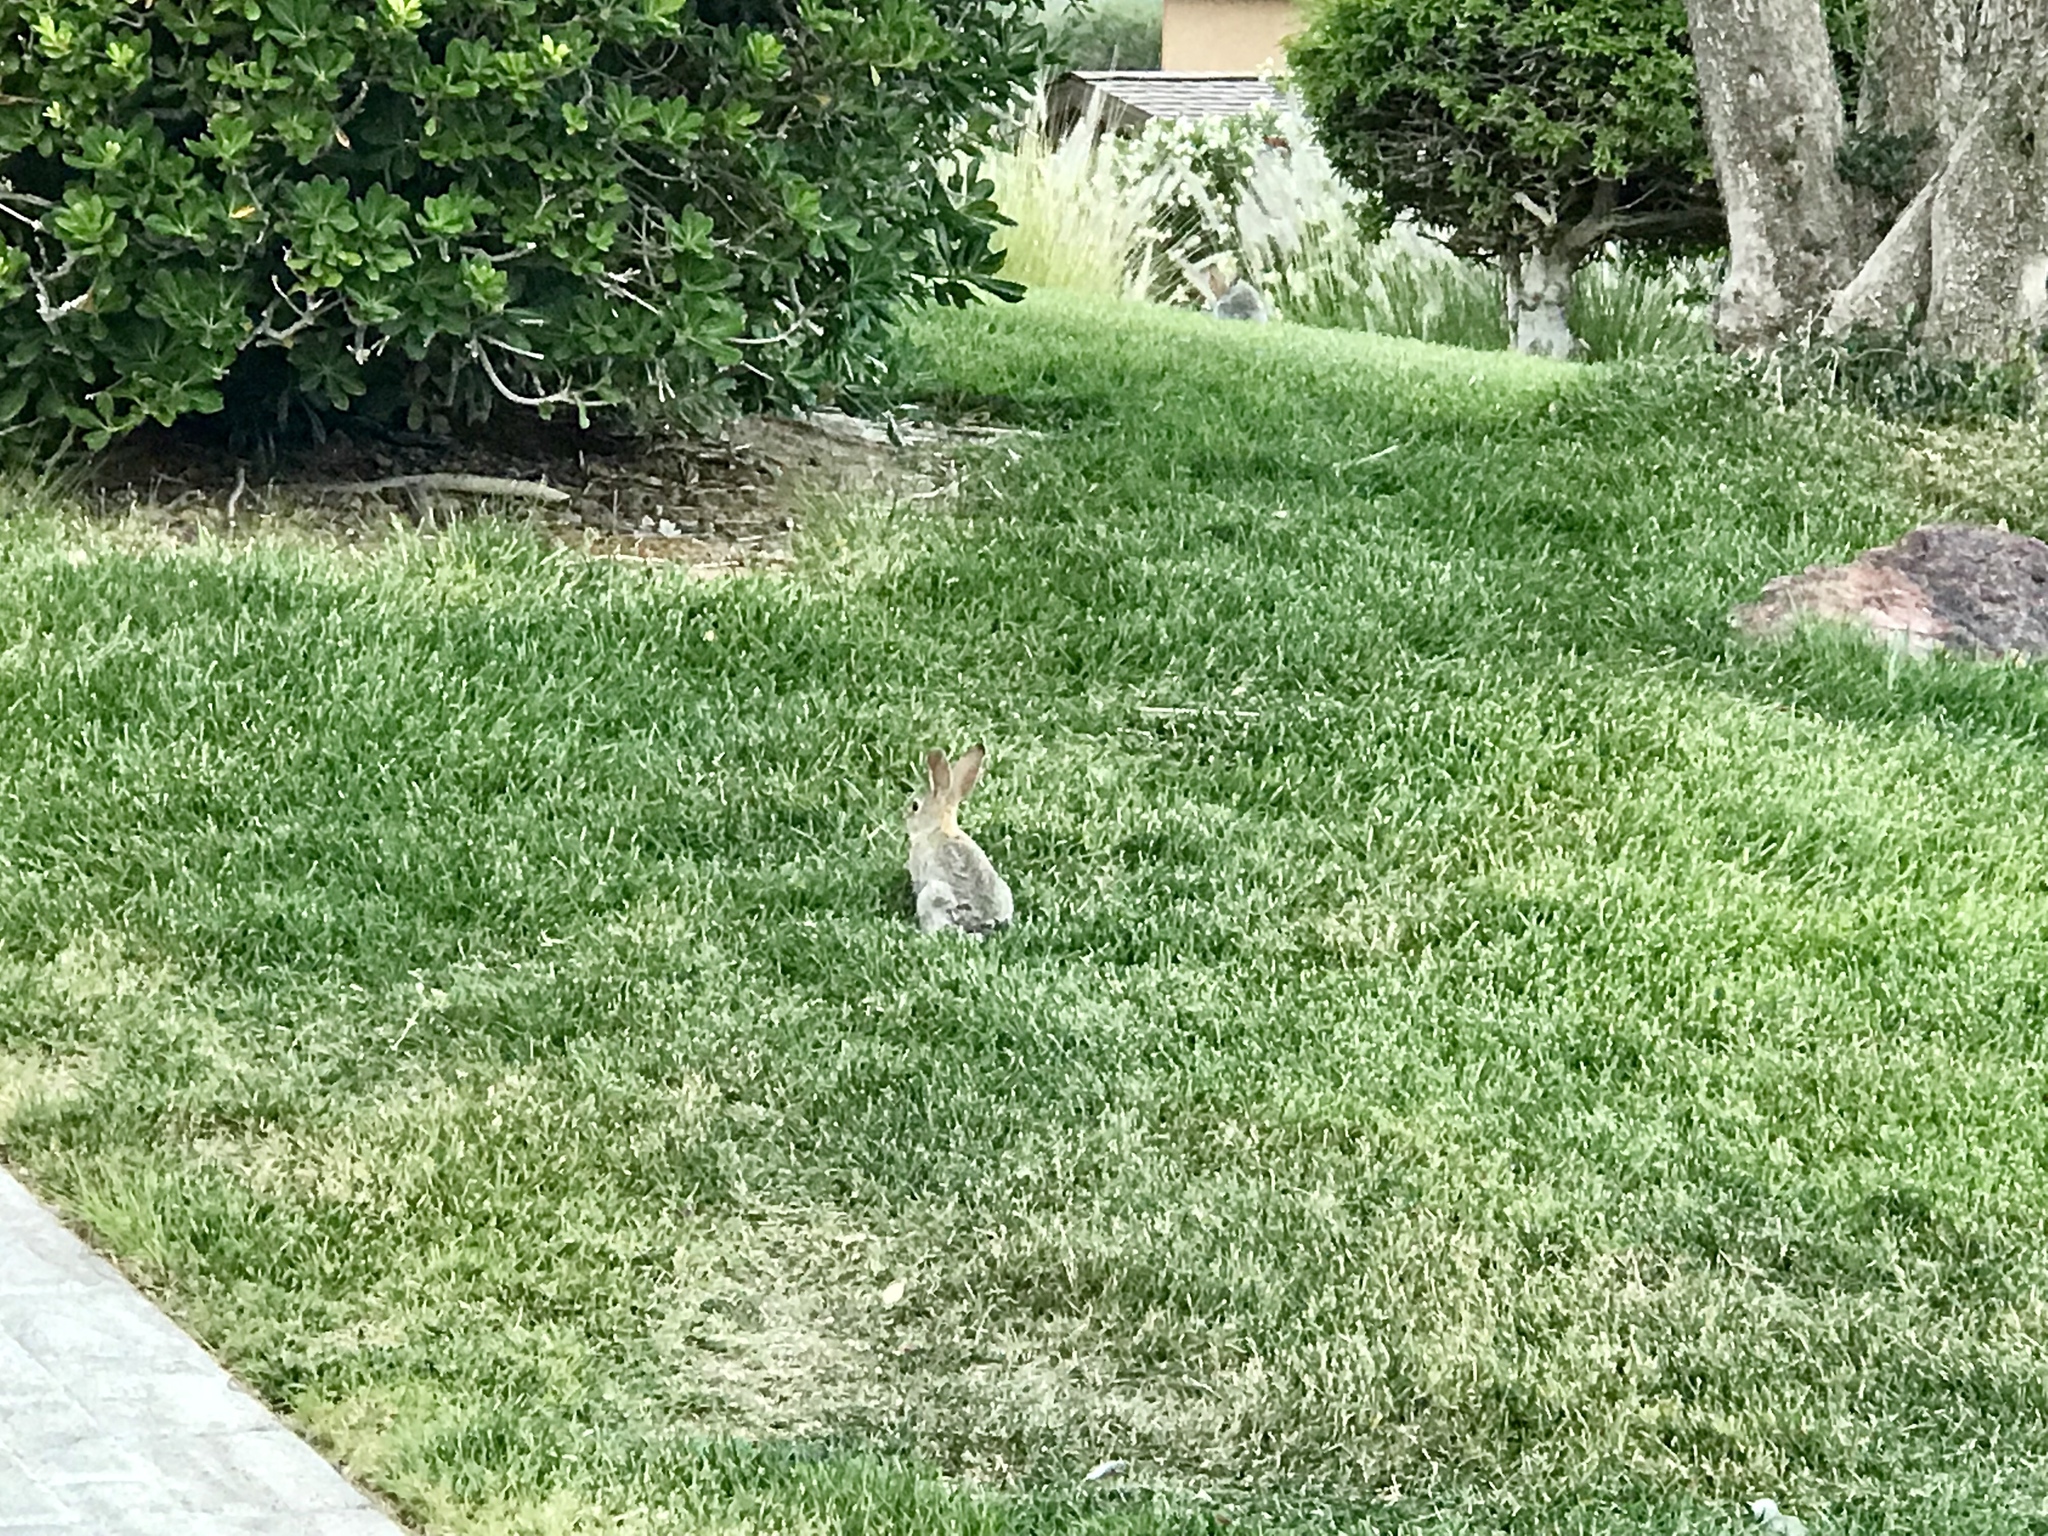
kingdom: Animalia
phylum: Chordata
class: Mammalia
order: Lagomorpha
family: Leporidae
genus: Sylvilagus
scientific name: Sylvilagus audubonii
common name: Desert cottontail
